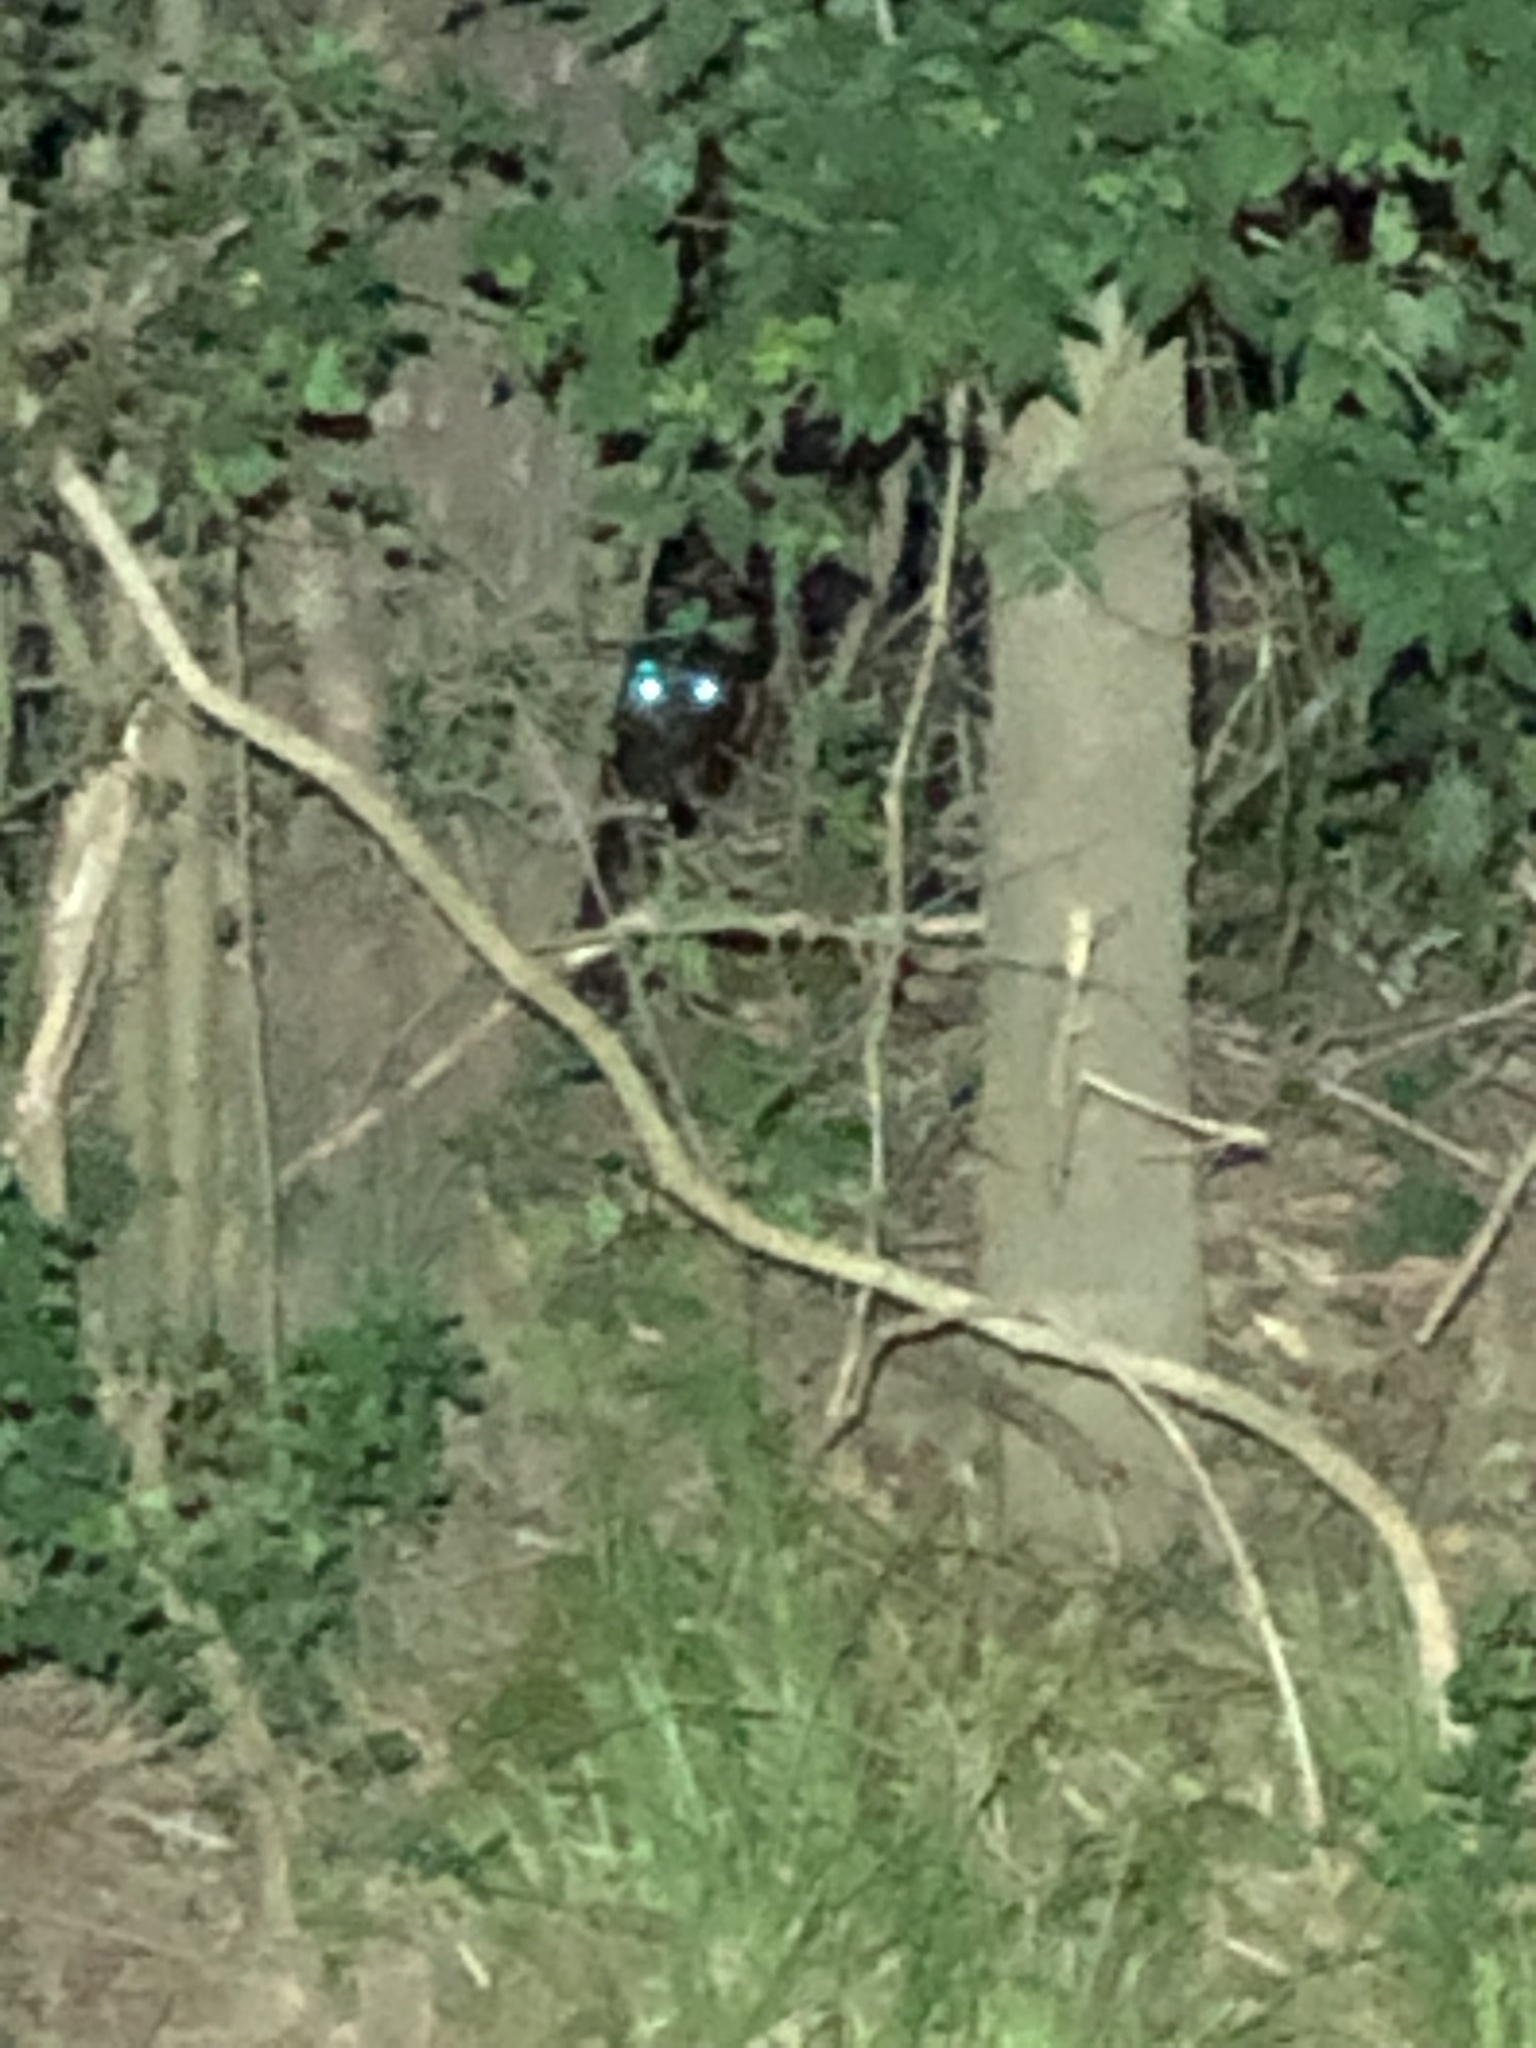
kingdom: Animalia
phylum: Chordata
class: Mammalia
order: Carnivora
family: Felidae
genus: Felis
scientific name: Felis catus
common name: Domestic cat
